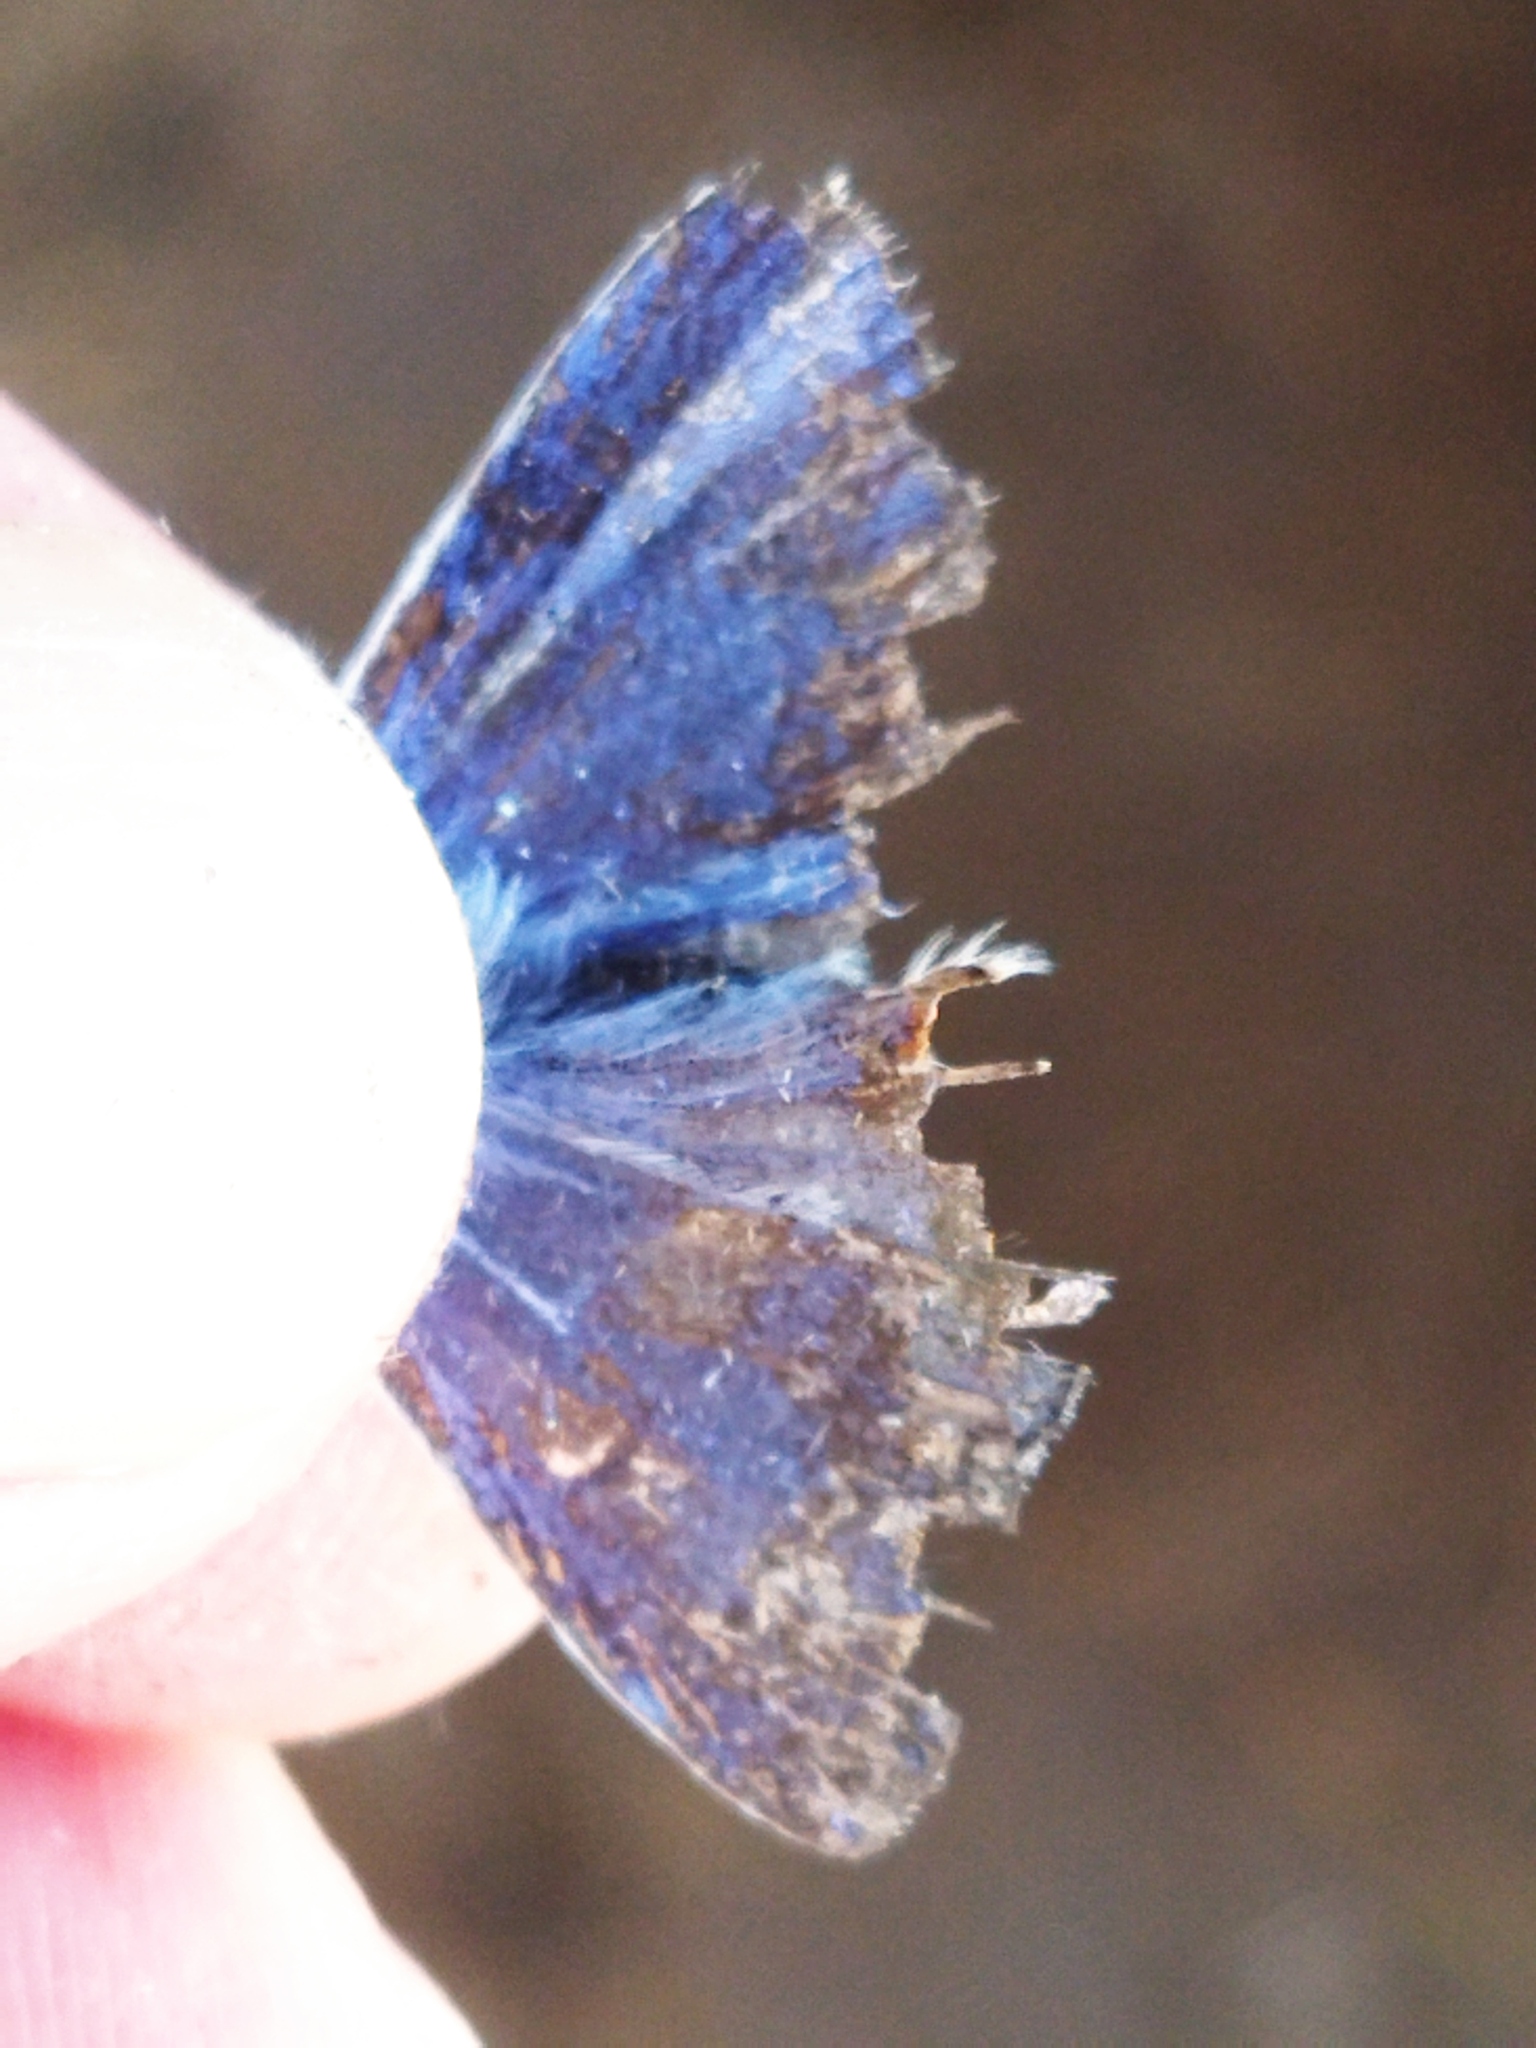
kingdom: Animalia
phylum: Arthropoda
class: Insecta
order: Lepidoptera
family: Lycaenidae
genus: Polyommatus
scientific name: Polyommatus
